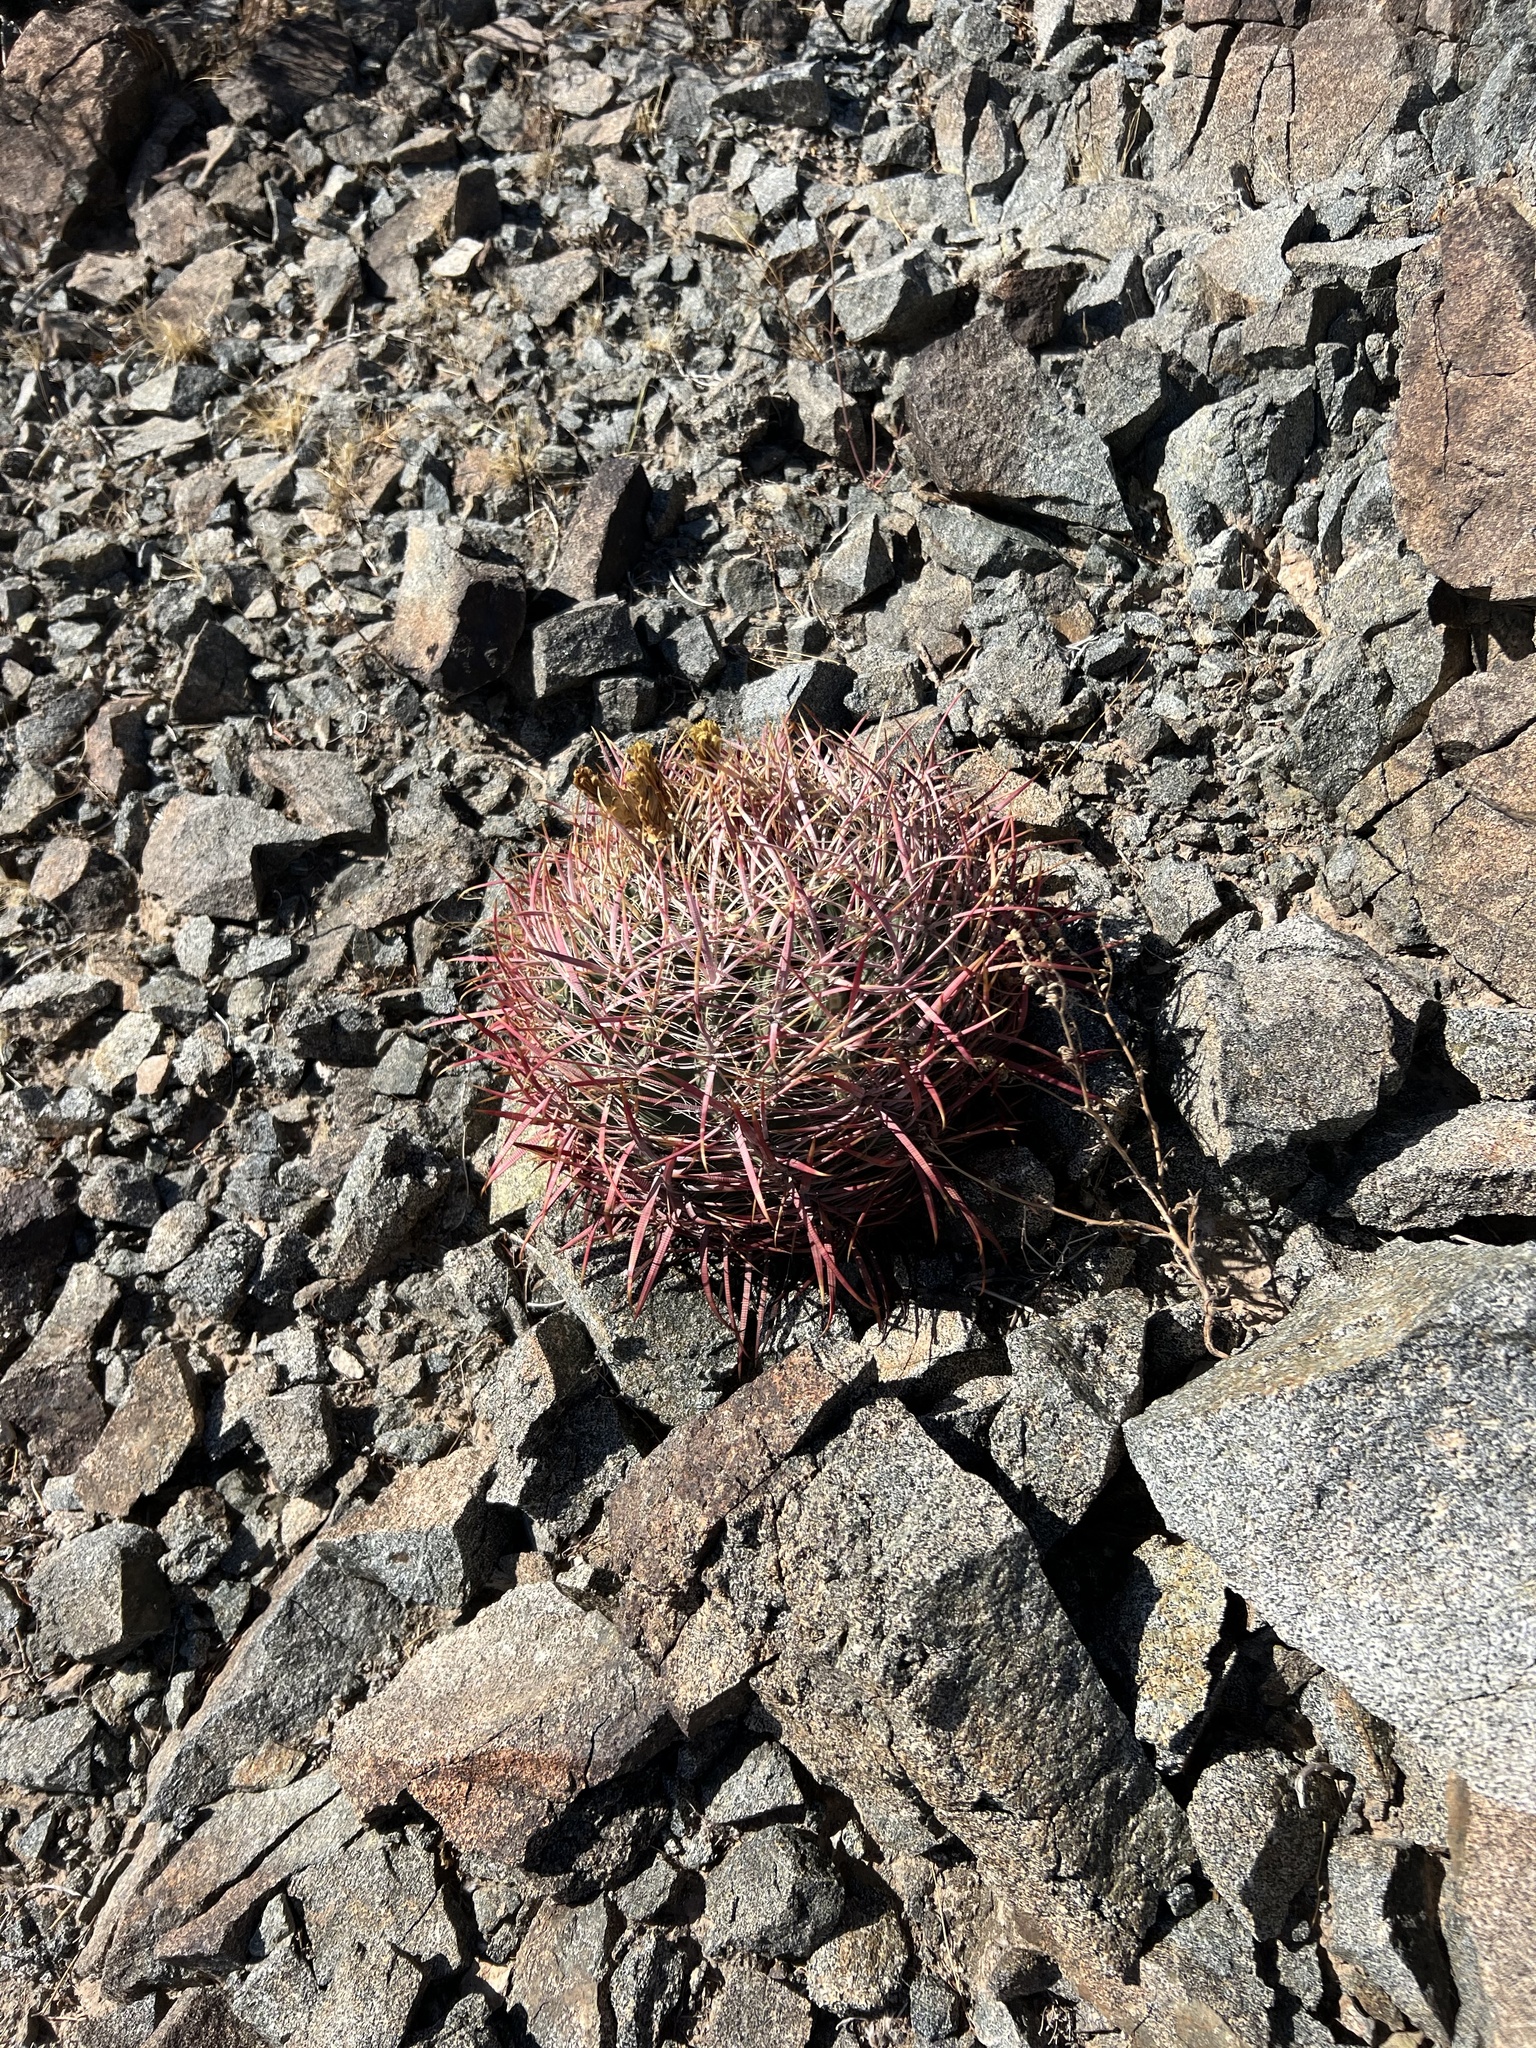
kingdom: Plantae
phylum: Tracheophyta
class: Magnoliopsida
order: Caryophyllales
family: Cactaceae
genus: Ferocactus
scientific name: Ferocactus cylindraceus
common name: California barrel cactus
